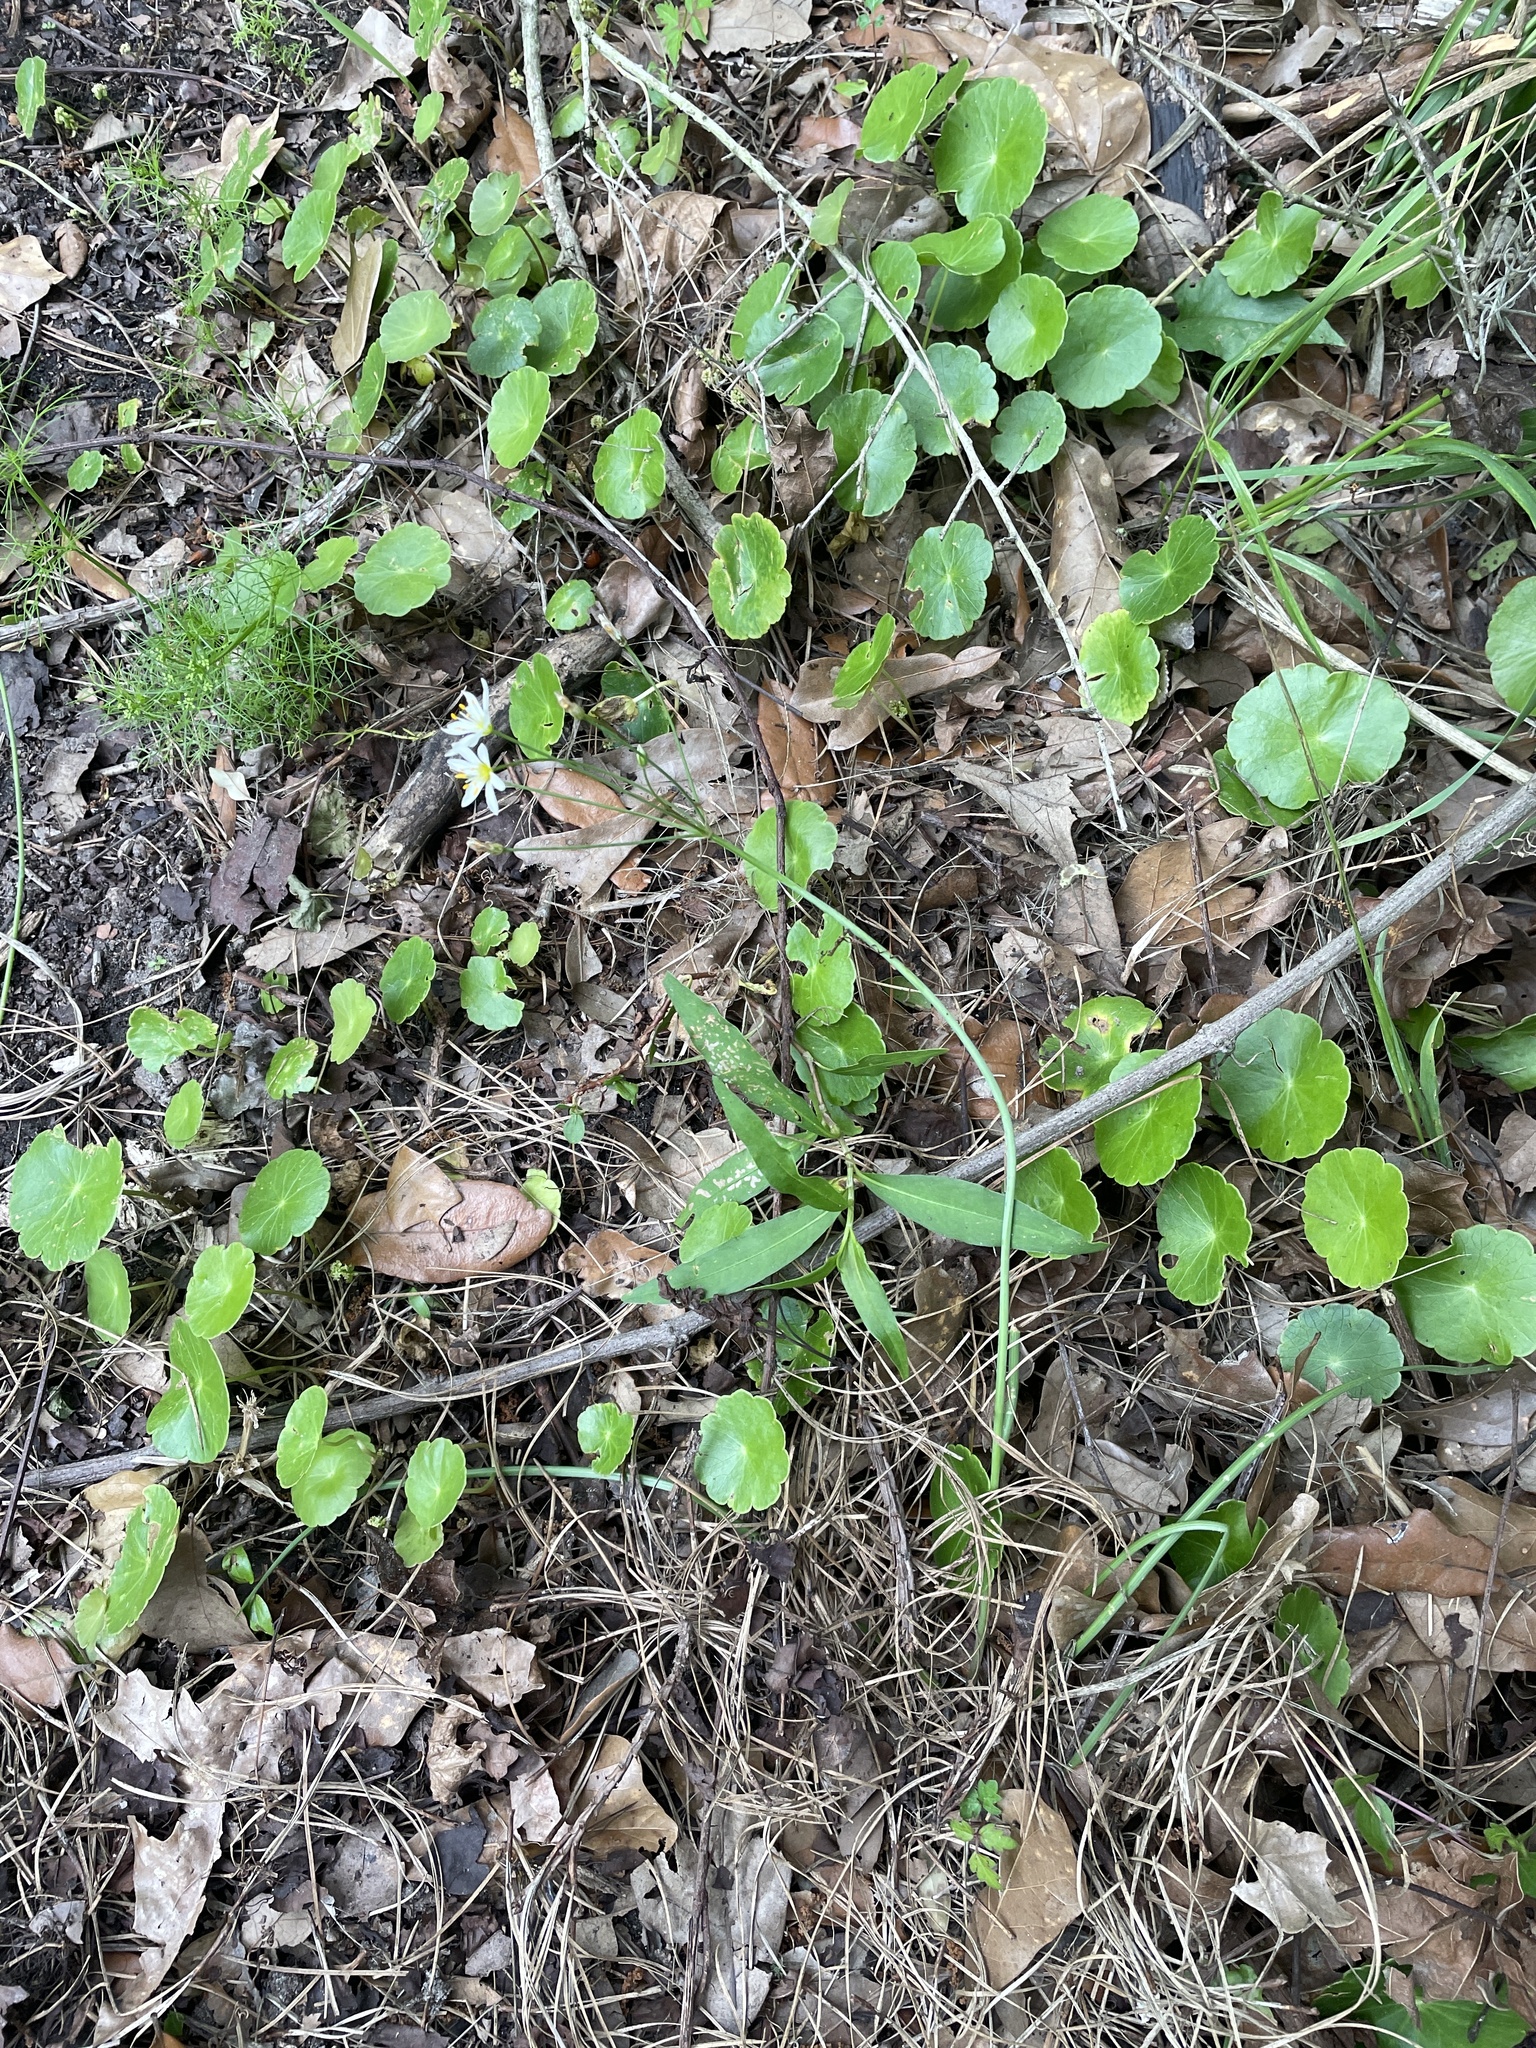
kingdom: Plantae
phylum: Tracheophyta
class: Liliopsida
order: Asparagales
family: Amaryllidaceae
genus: Nothoscordum
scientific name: Nothoscordum bivalve
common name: Crow-poison
